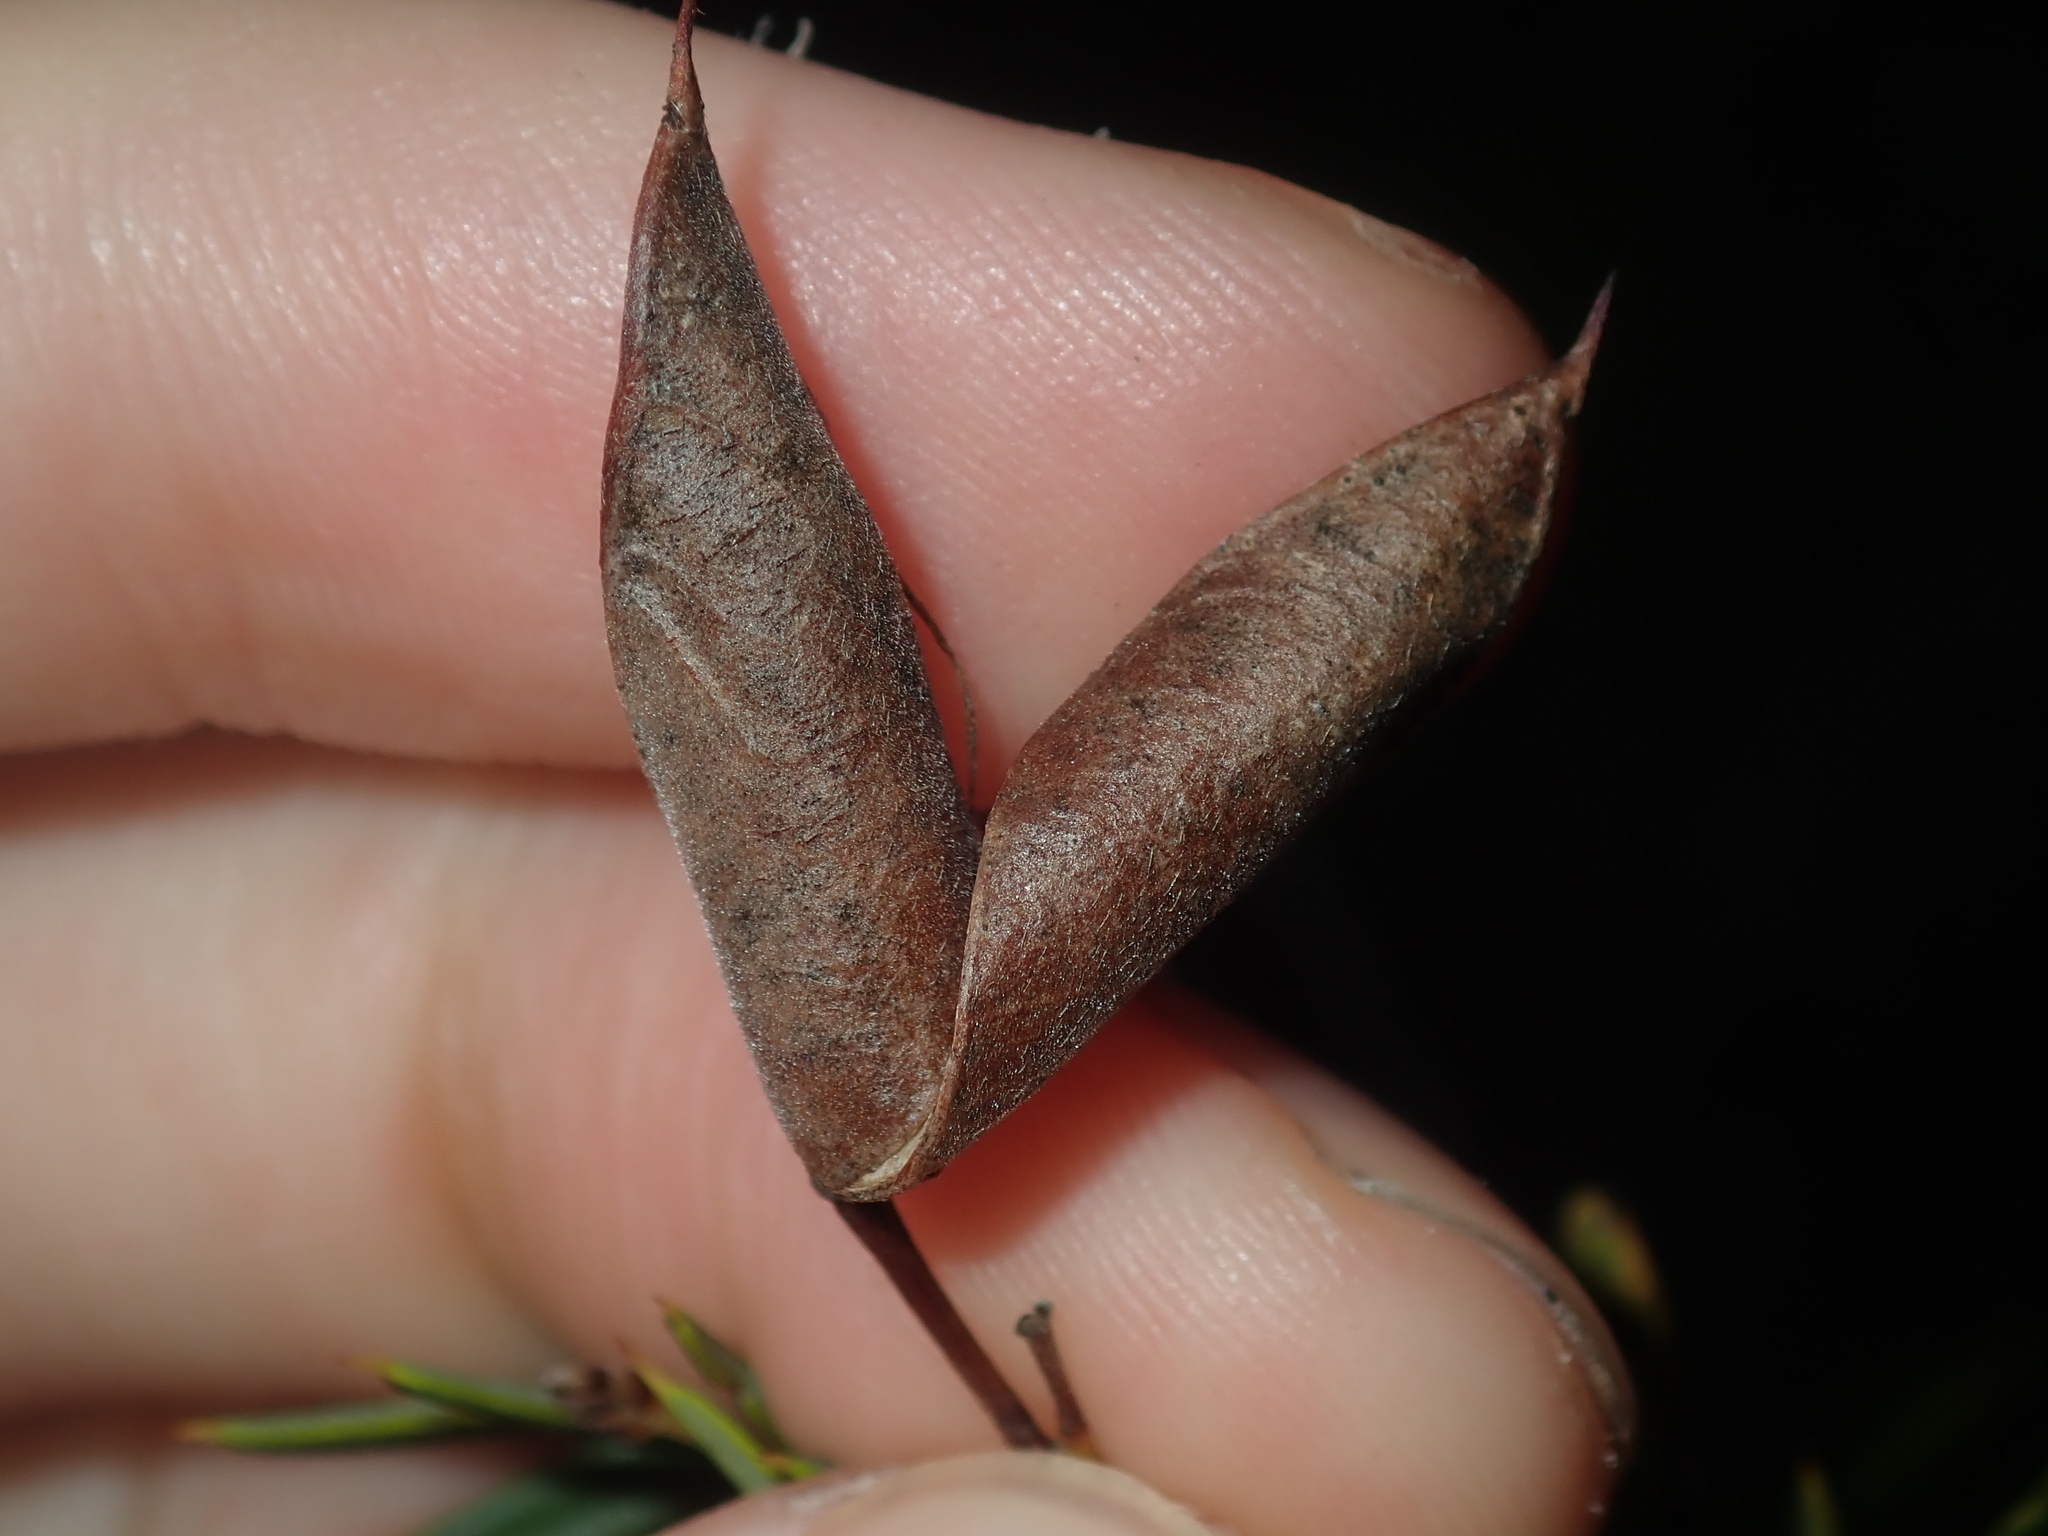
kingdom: Plantae
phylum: Tracheophyta
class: Magnoliopsida
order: Fabales
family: Fabaceae
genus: Labichea
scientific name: Labichea cassioides
